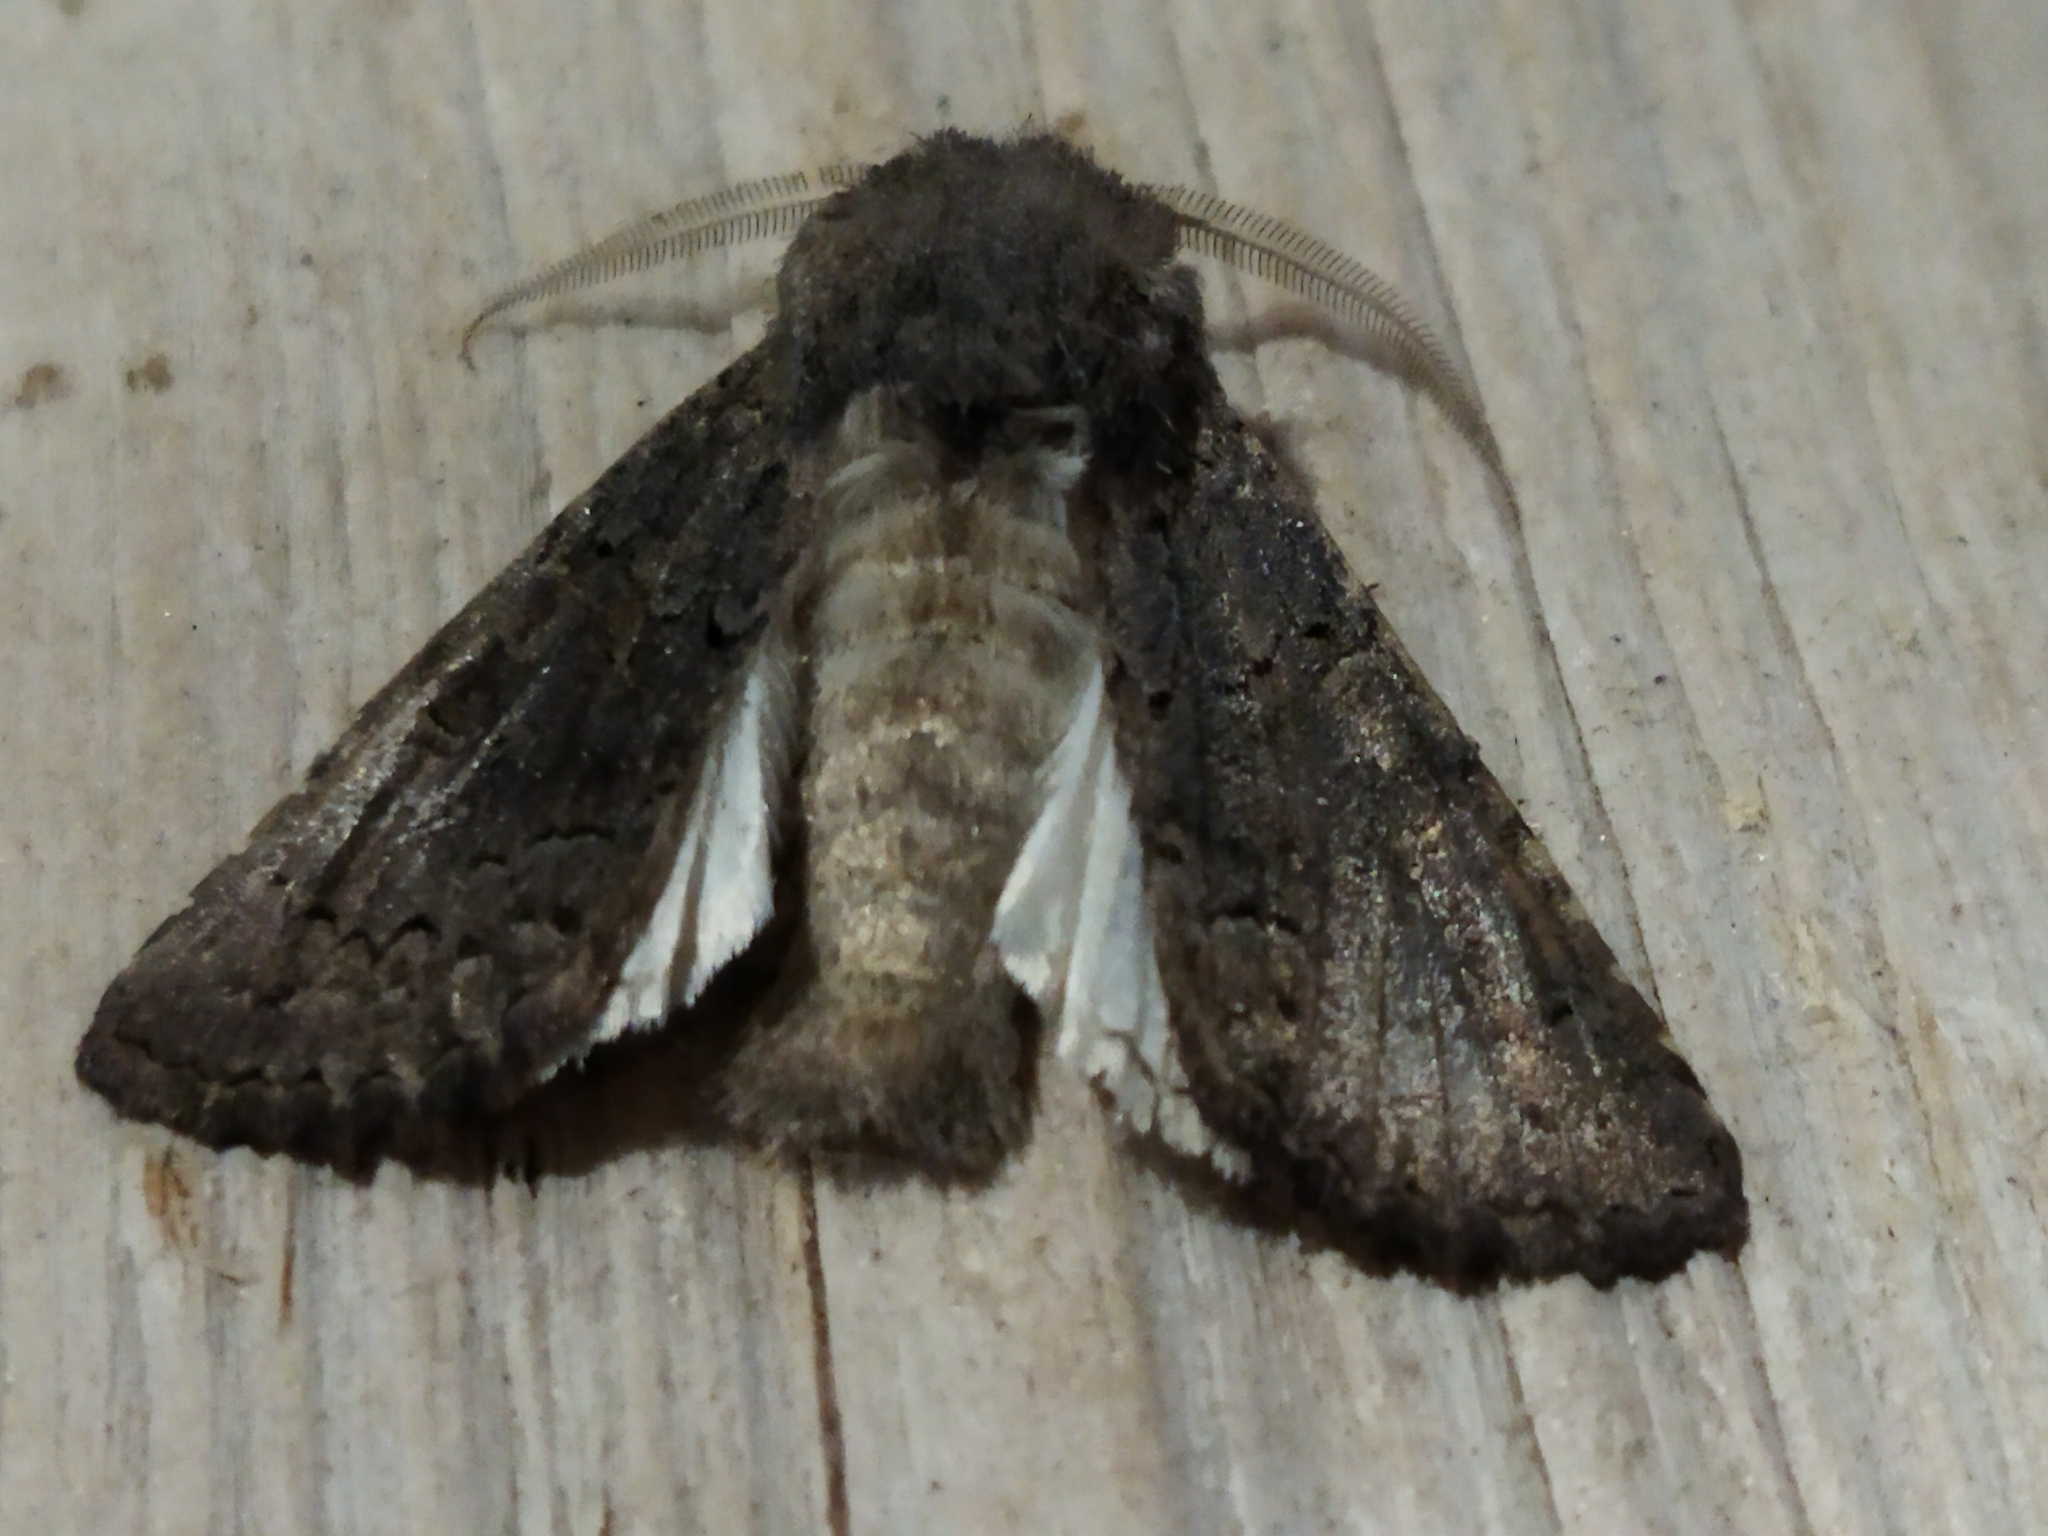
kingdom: Animalia
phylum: Arthropoda
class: Insecta
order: Lepidoptera
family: Noctuidae
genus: Aporophyla
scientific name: Aporophyla lutulenta
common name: Deep-brown dart
